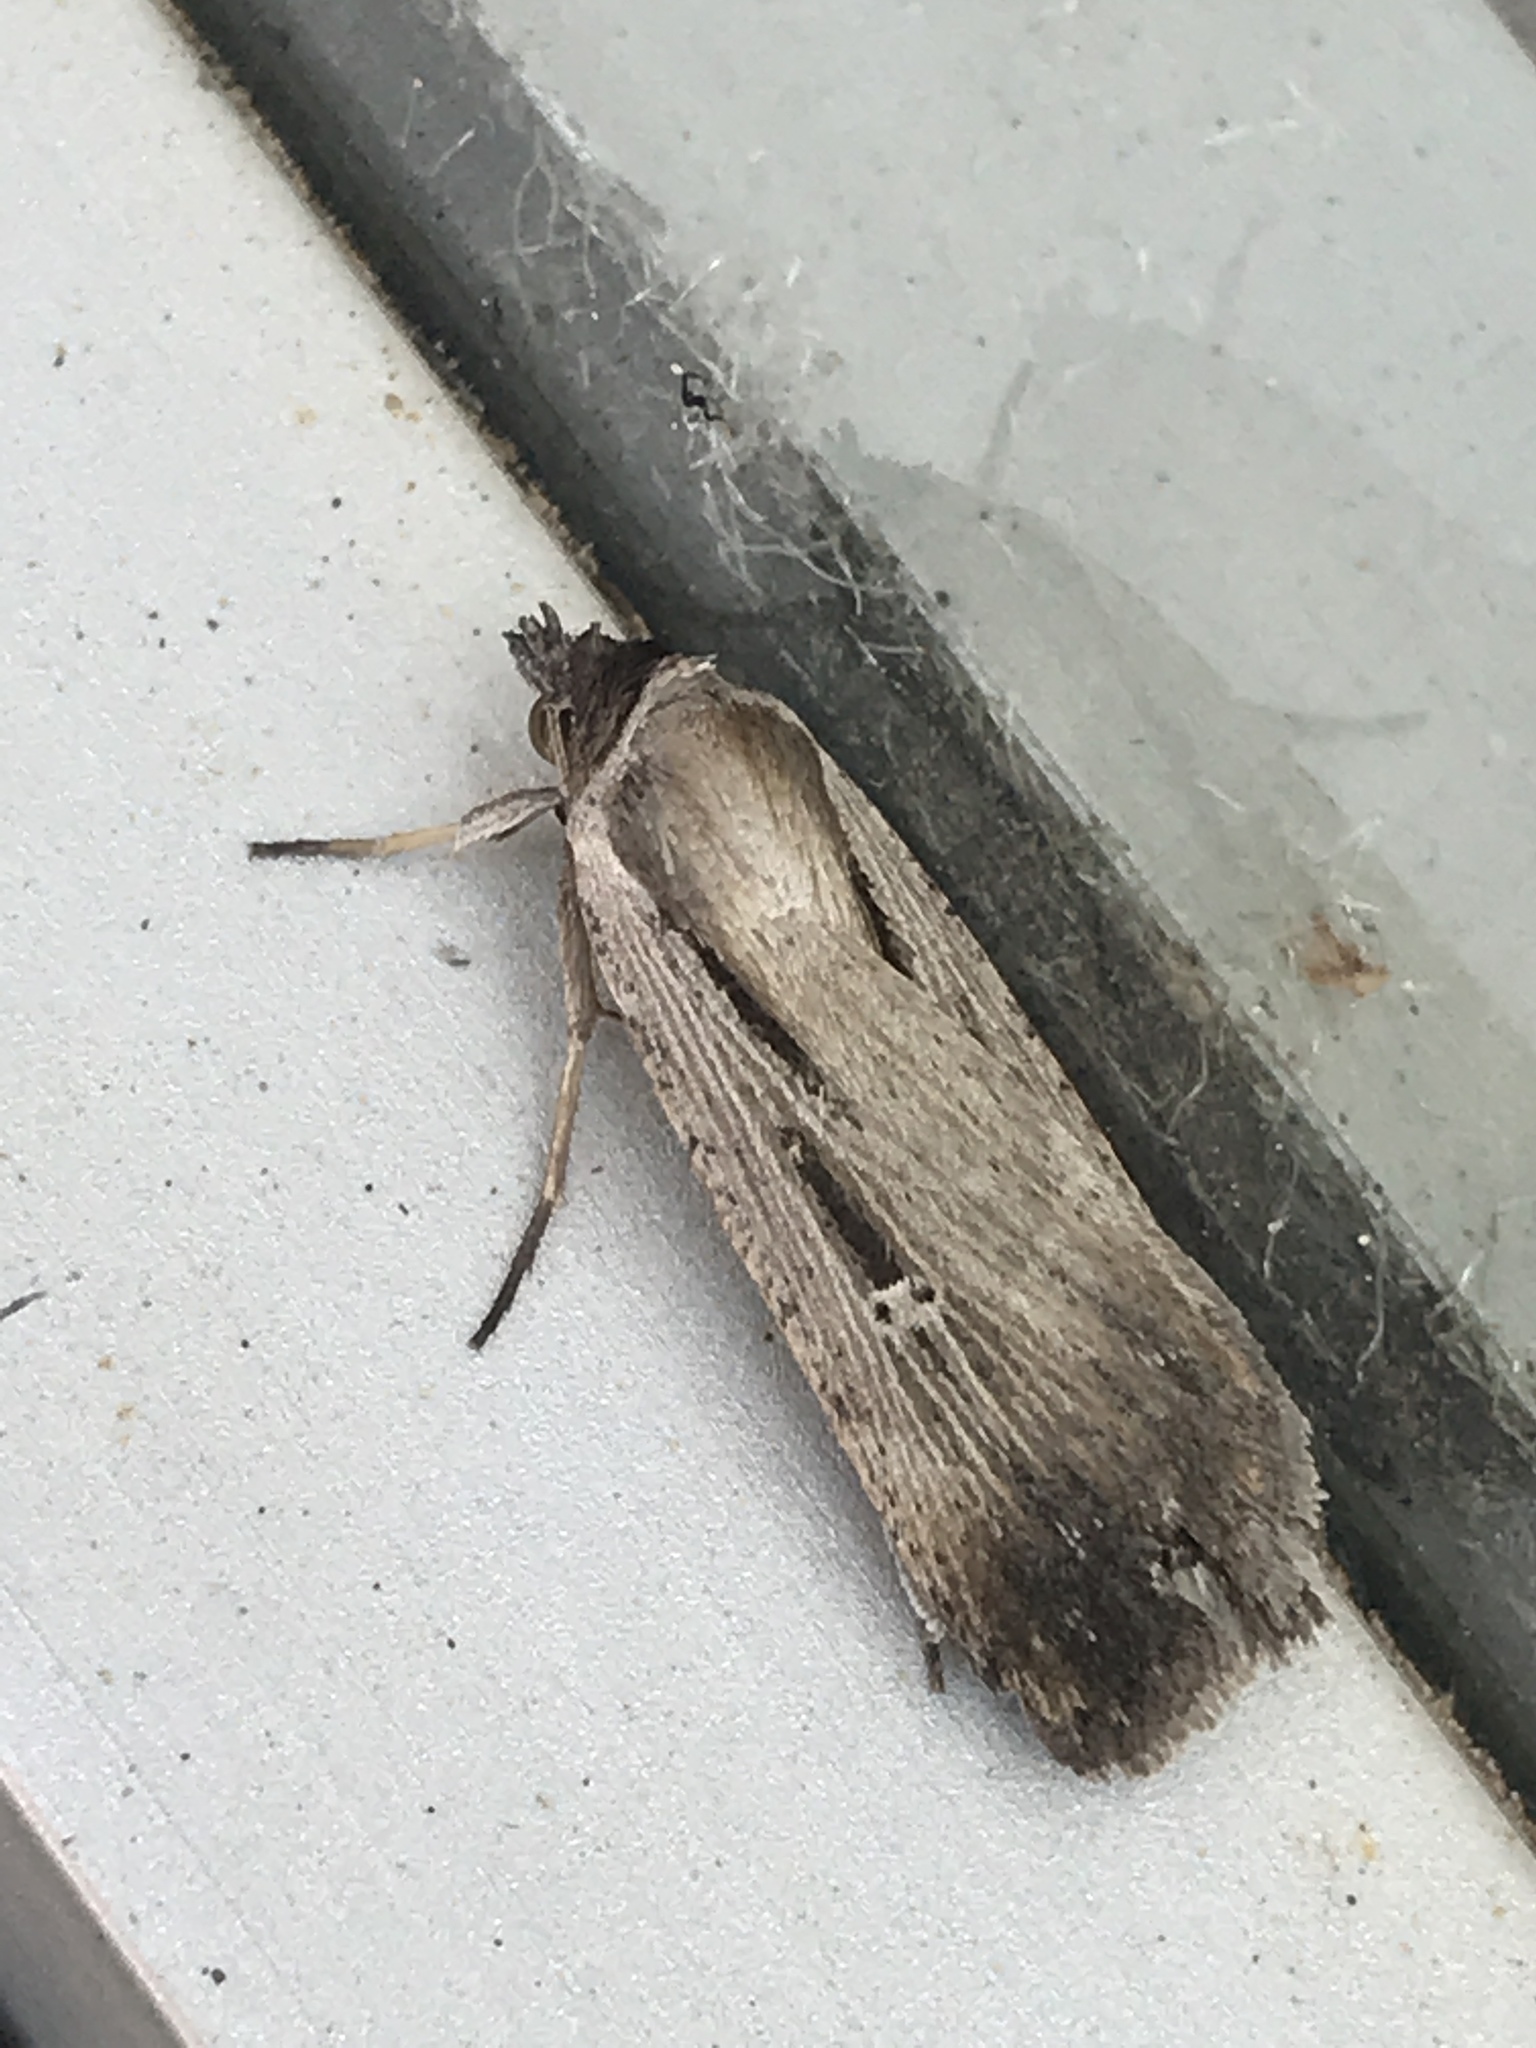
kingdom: Animalia
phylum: Arthropoda
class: Insecta
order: Lepidoptera
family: Noctuidae
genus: Tathorhynchus
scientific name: Tathorhynchus exsiccata
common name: Levant blackneck moth
